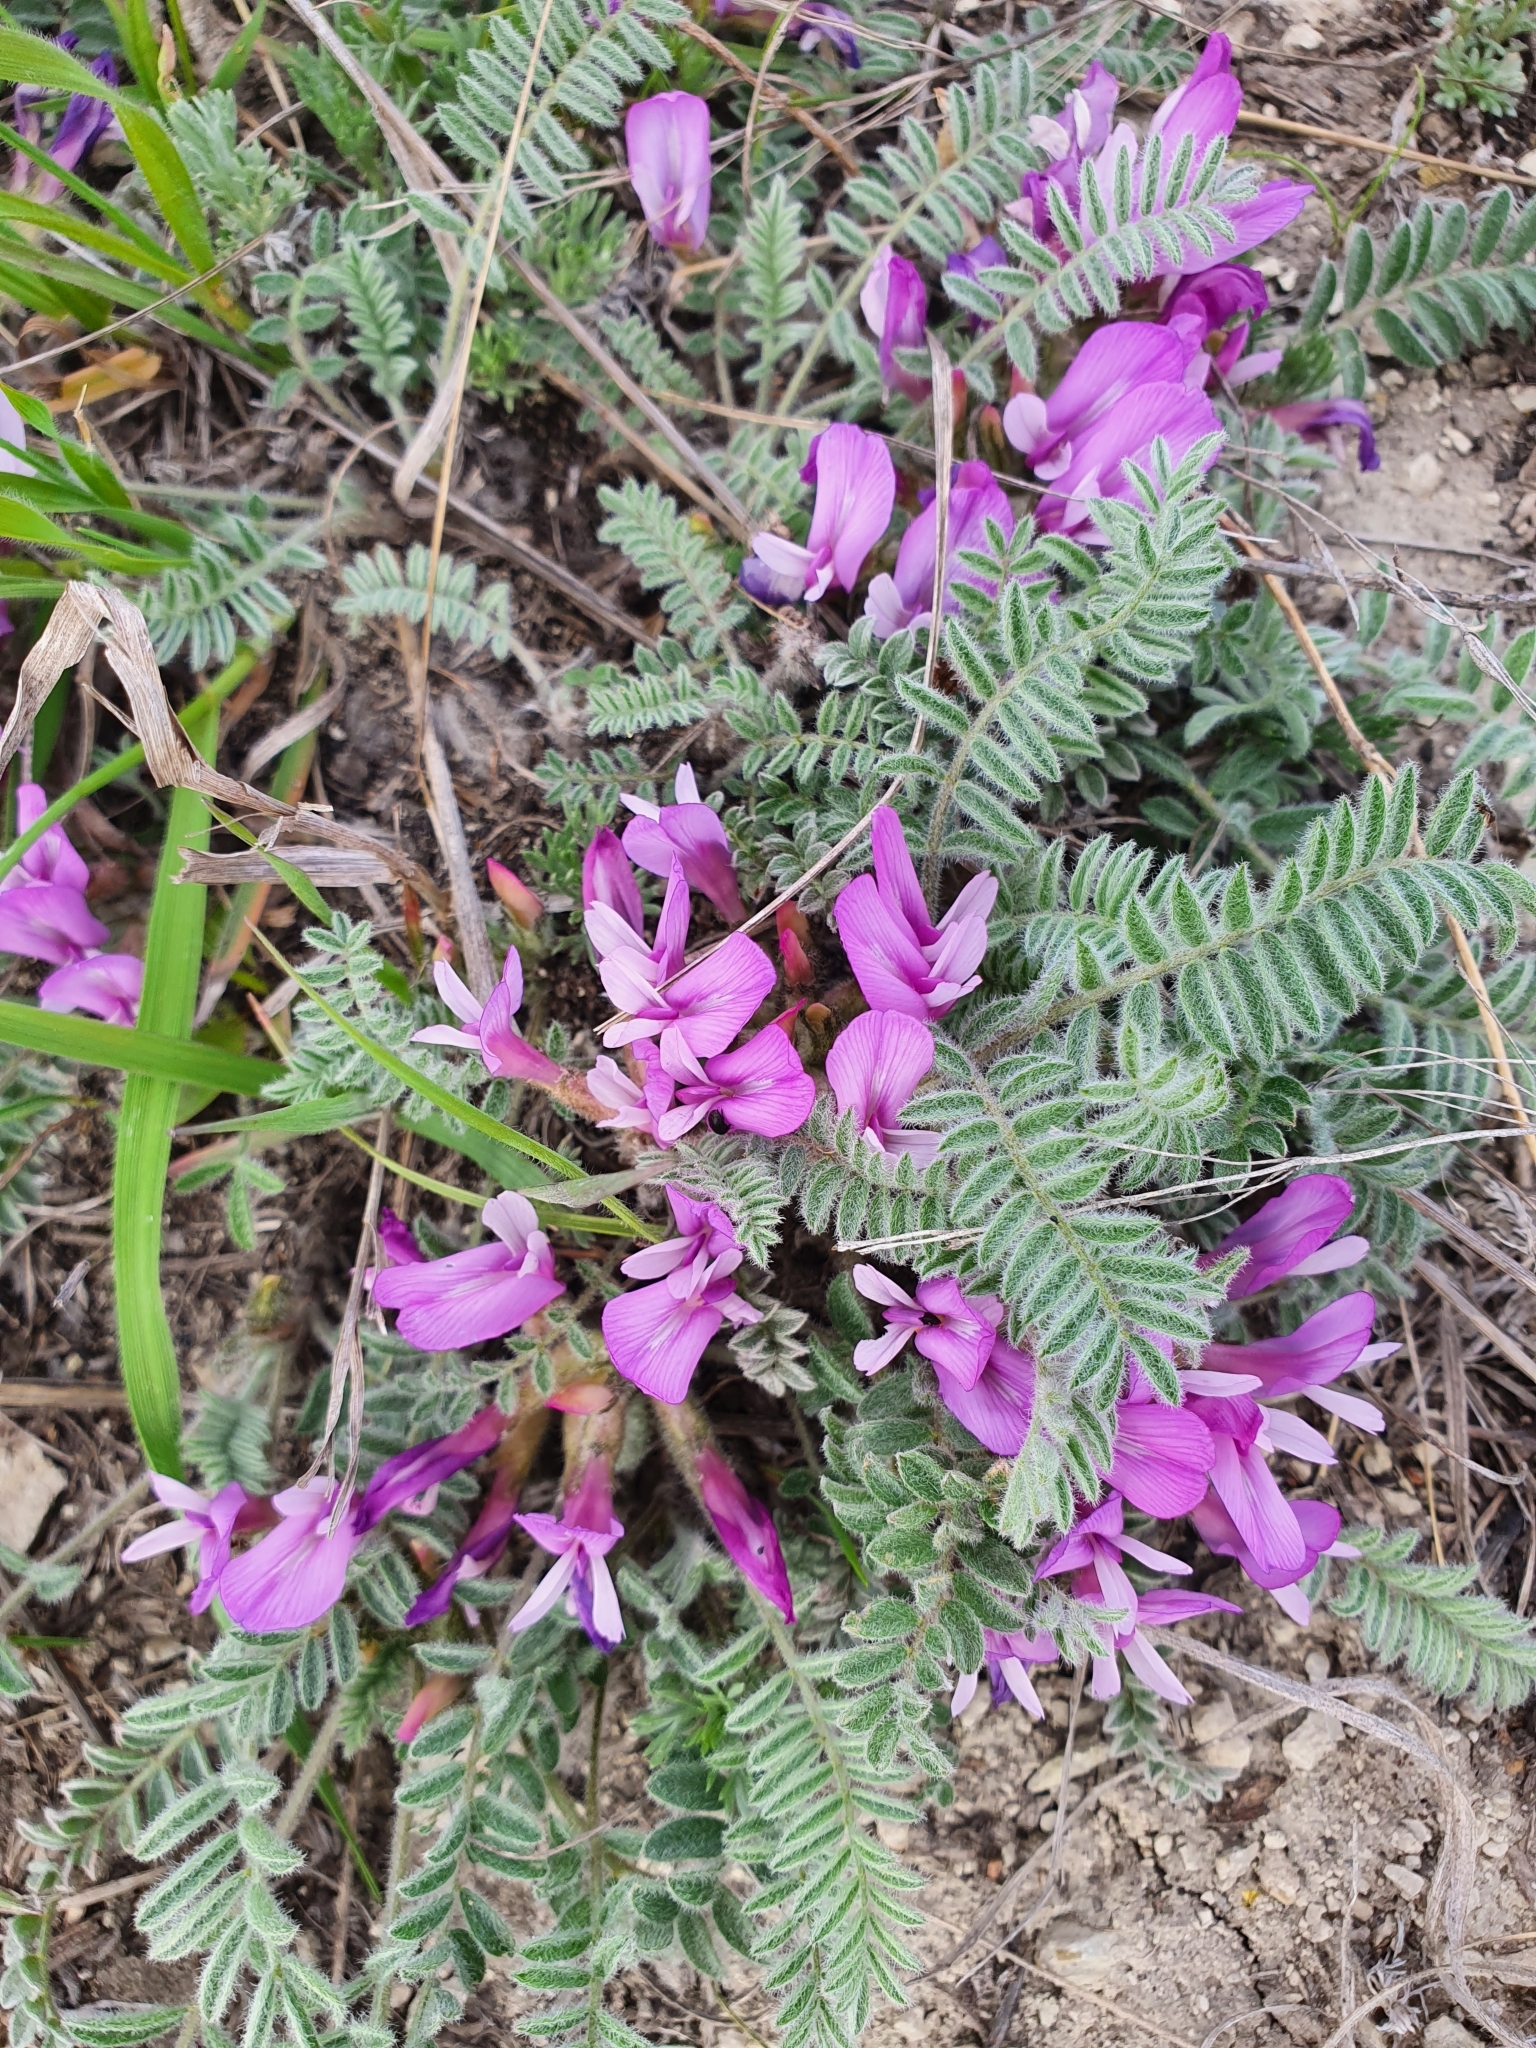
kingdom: Plantae
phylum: Tracheophyta
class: Magnoliopsida
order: Fabales
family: Fabaceae
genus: Astragalus
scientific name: Astragalus testiculatus
